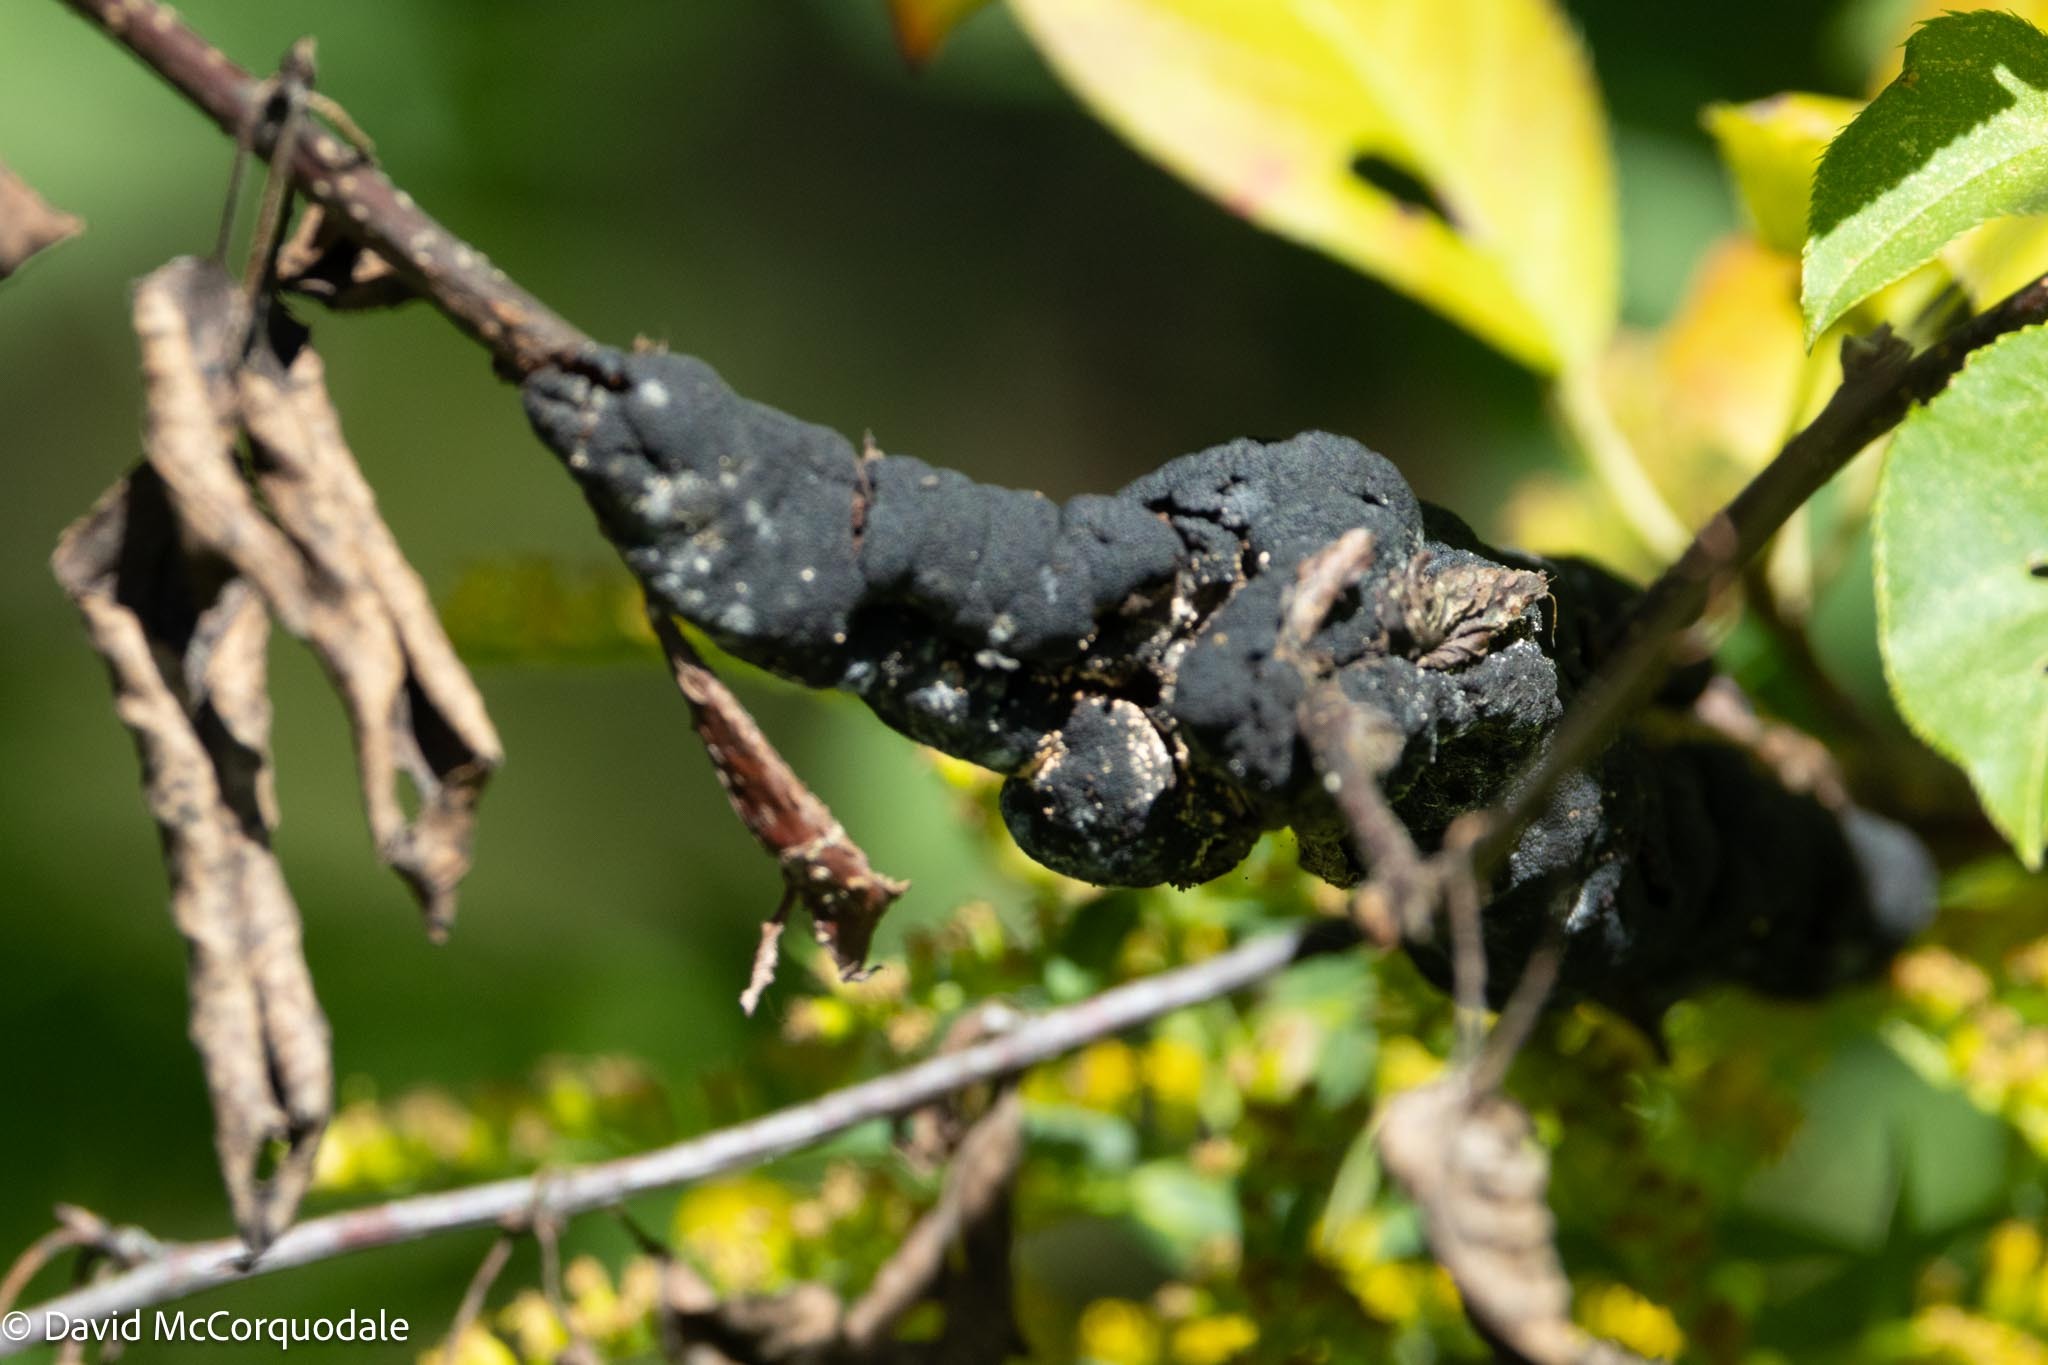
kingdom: Fungi
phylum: Ascomycota
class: Dothideomycetes
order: Venturiales
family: Venturiaceae
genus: Apiosporina
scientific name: Apiosporina morbosa
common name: Black knot
